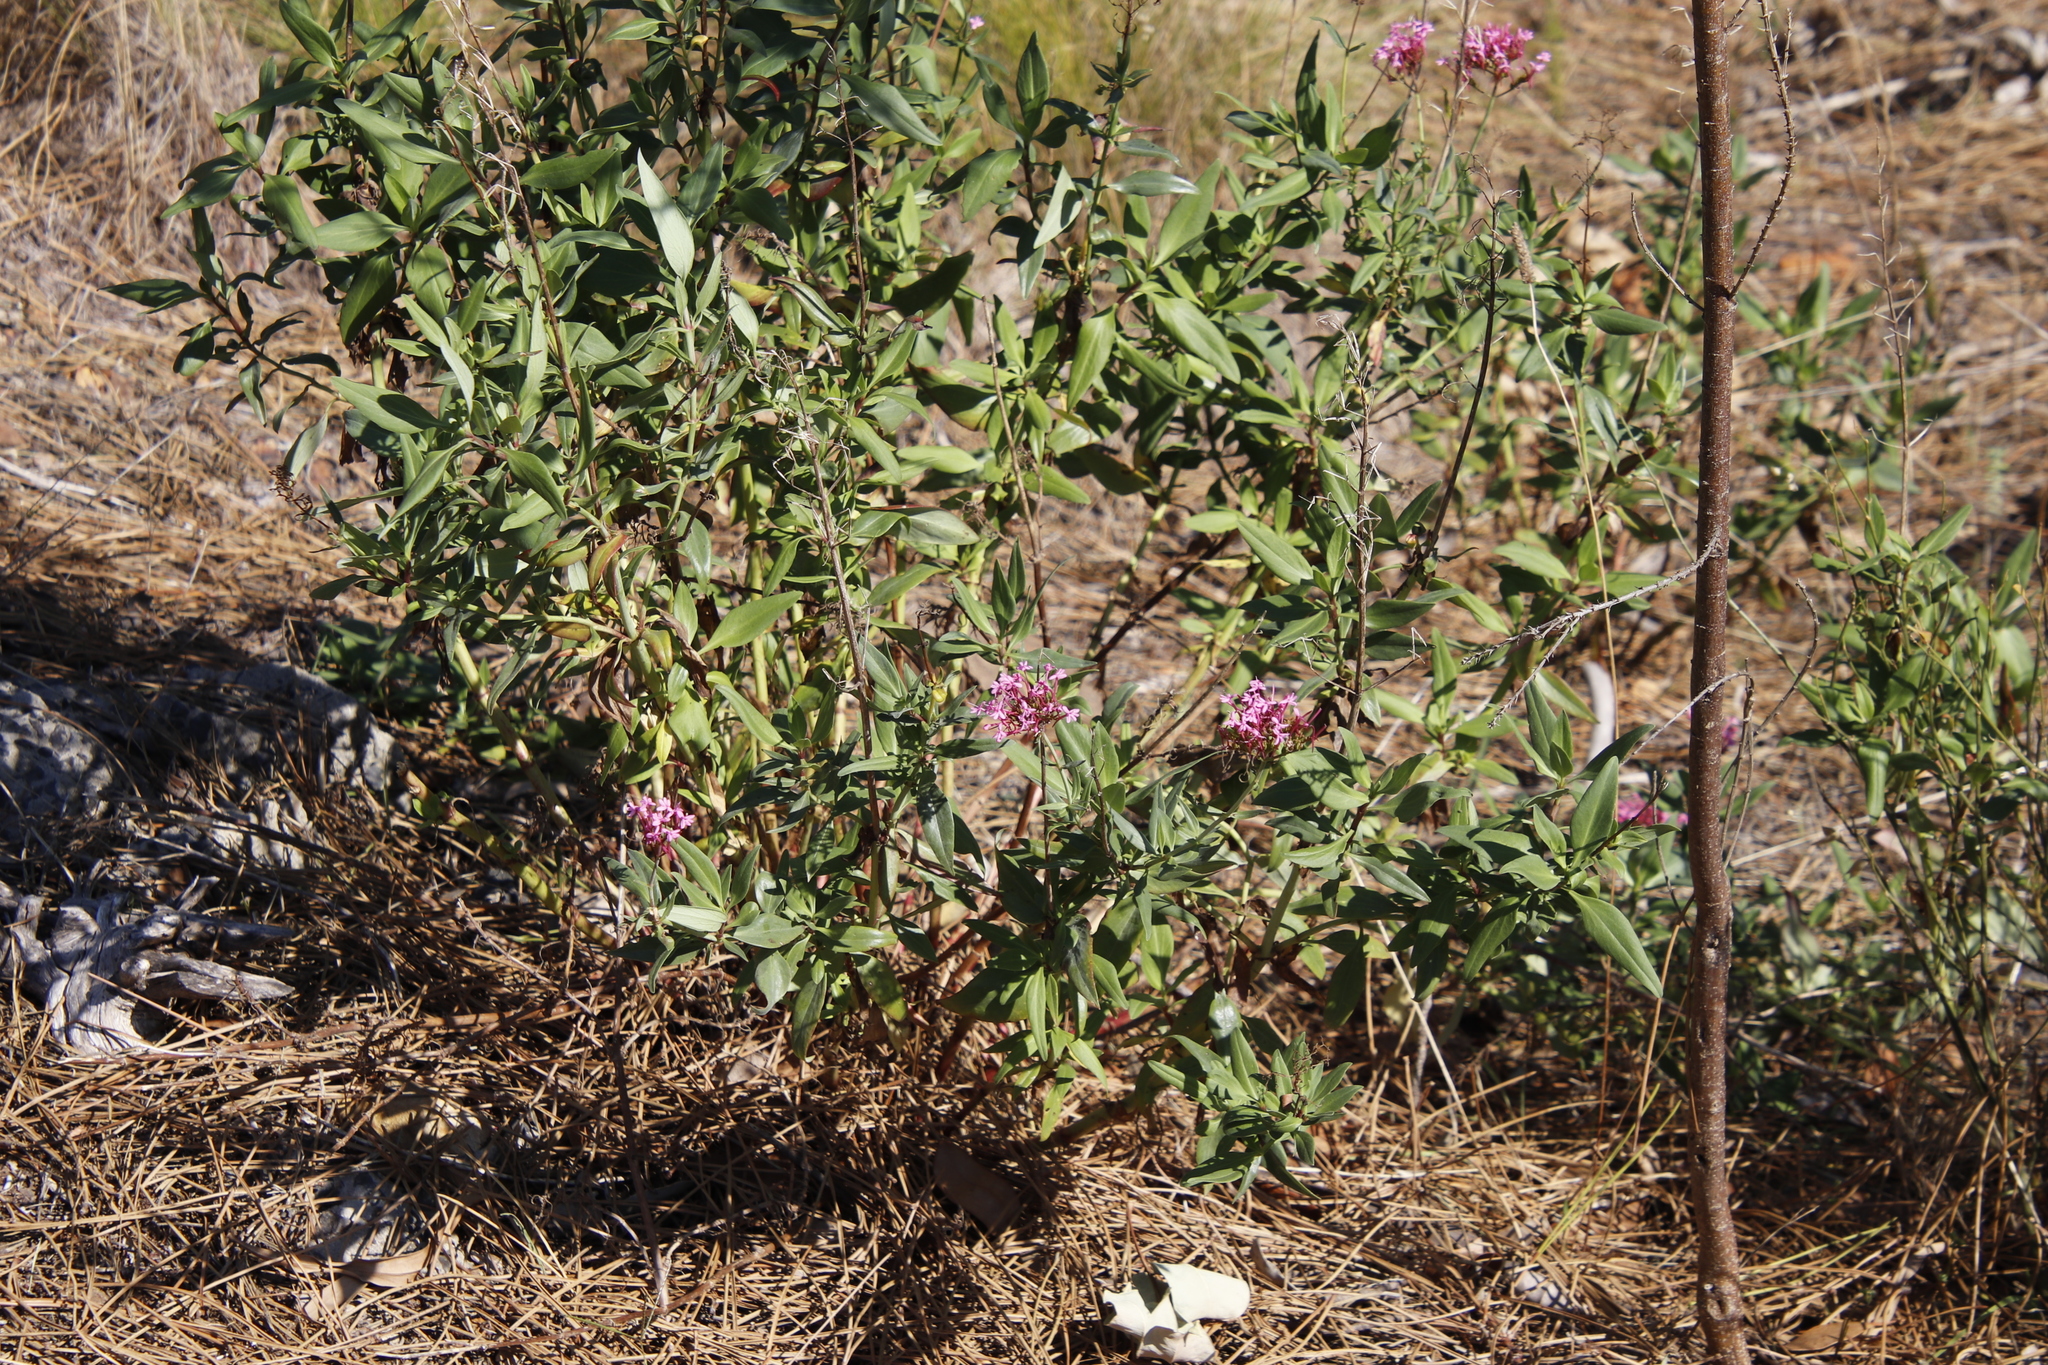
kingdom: Plantae
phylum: Tracheophyta
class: Magnoliopsida
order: Dipsacales
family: Caprifoliaceae
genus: Centranthus
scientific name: Centranthus ruber
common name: Red valerian
